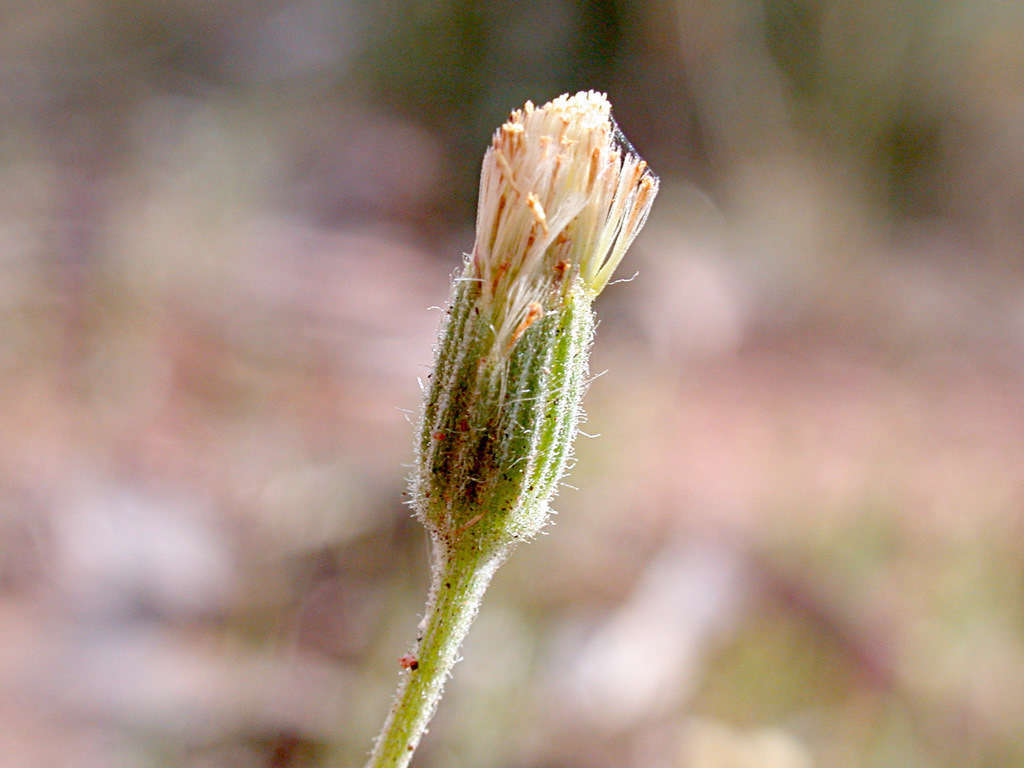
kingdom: Plantae
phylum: Tracheophyta
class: Magnoliopsida
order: Asterales
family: Asteraceae
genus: Millotia
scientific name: Millotia tenuifolia
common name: Soft millotia
